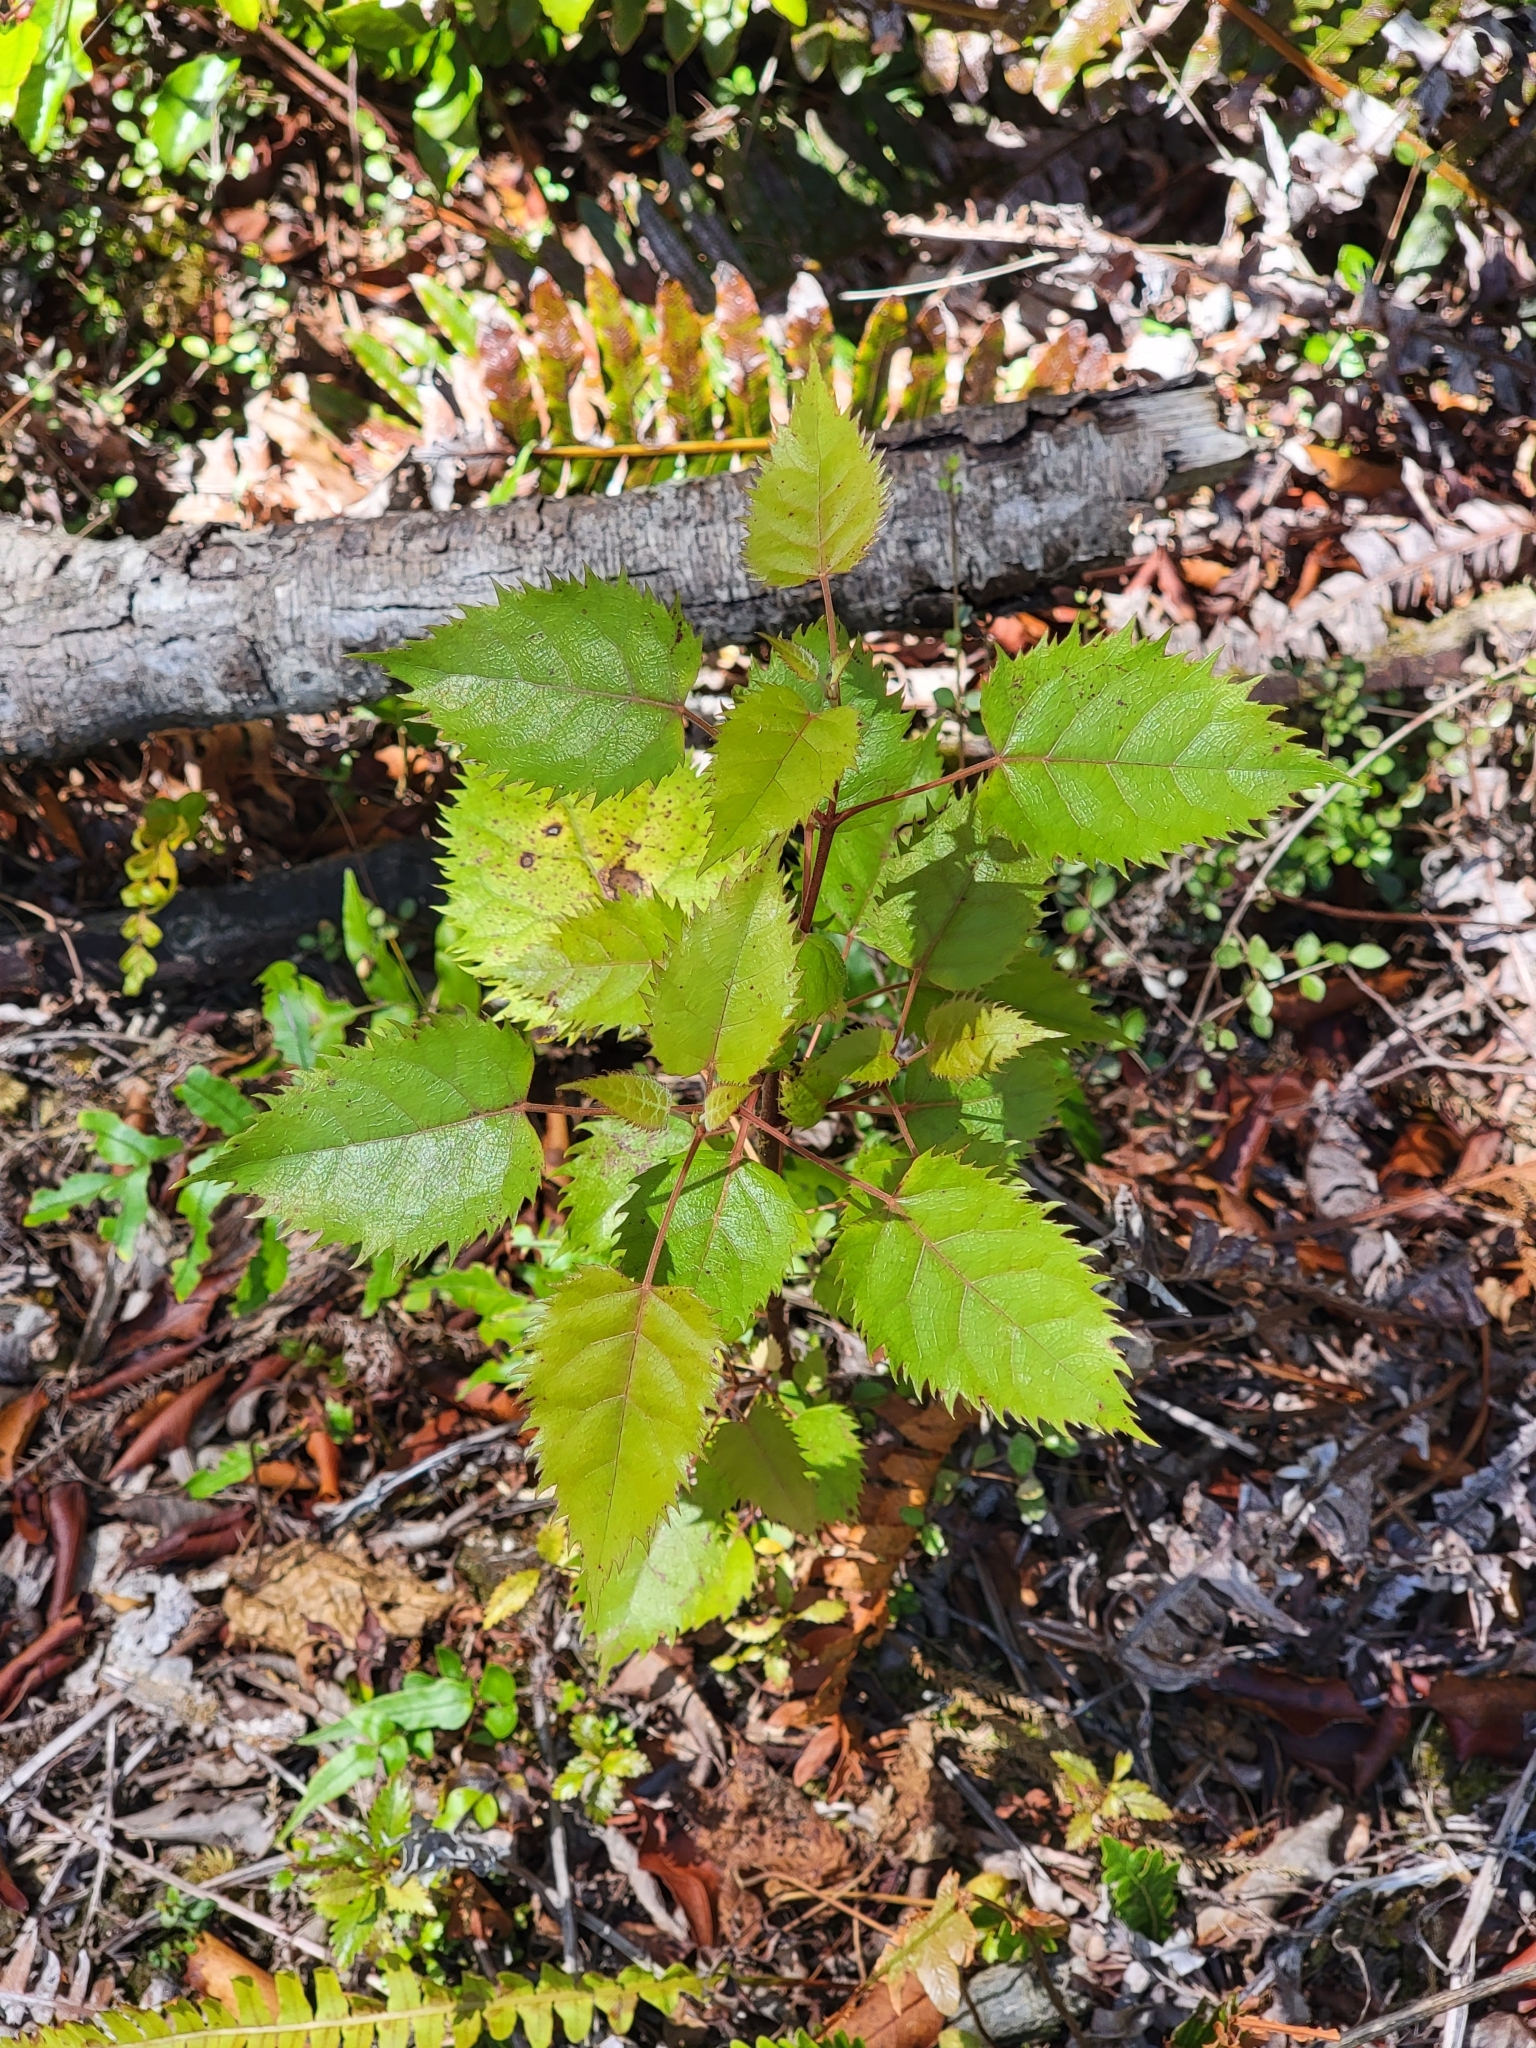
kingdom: Plantae
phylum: Tracheophyta
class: Magnoliopsida
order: Oxalidales
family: Elaeocarpaceae
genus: Aristotelia
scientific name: Aristotelia serrata
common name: New zealand wineberry
